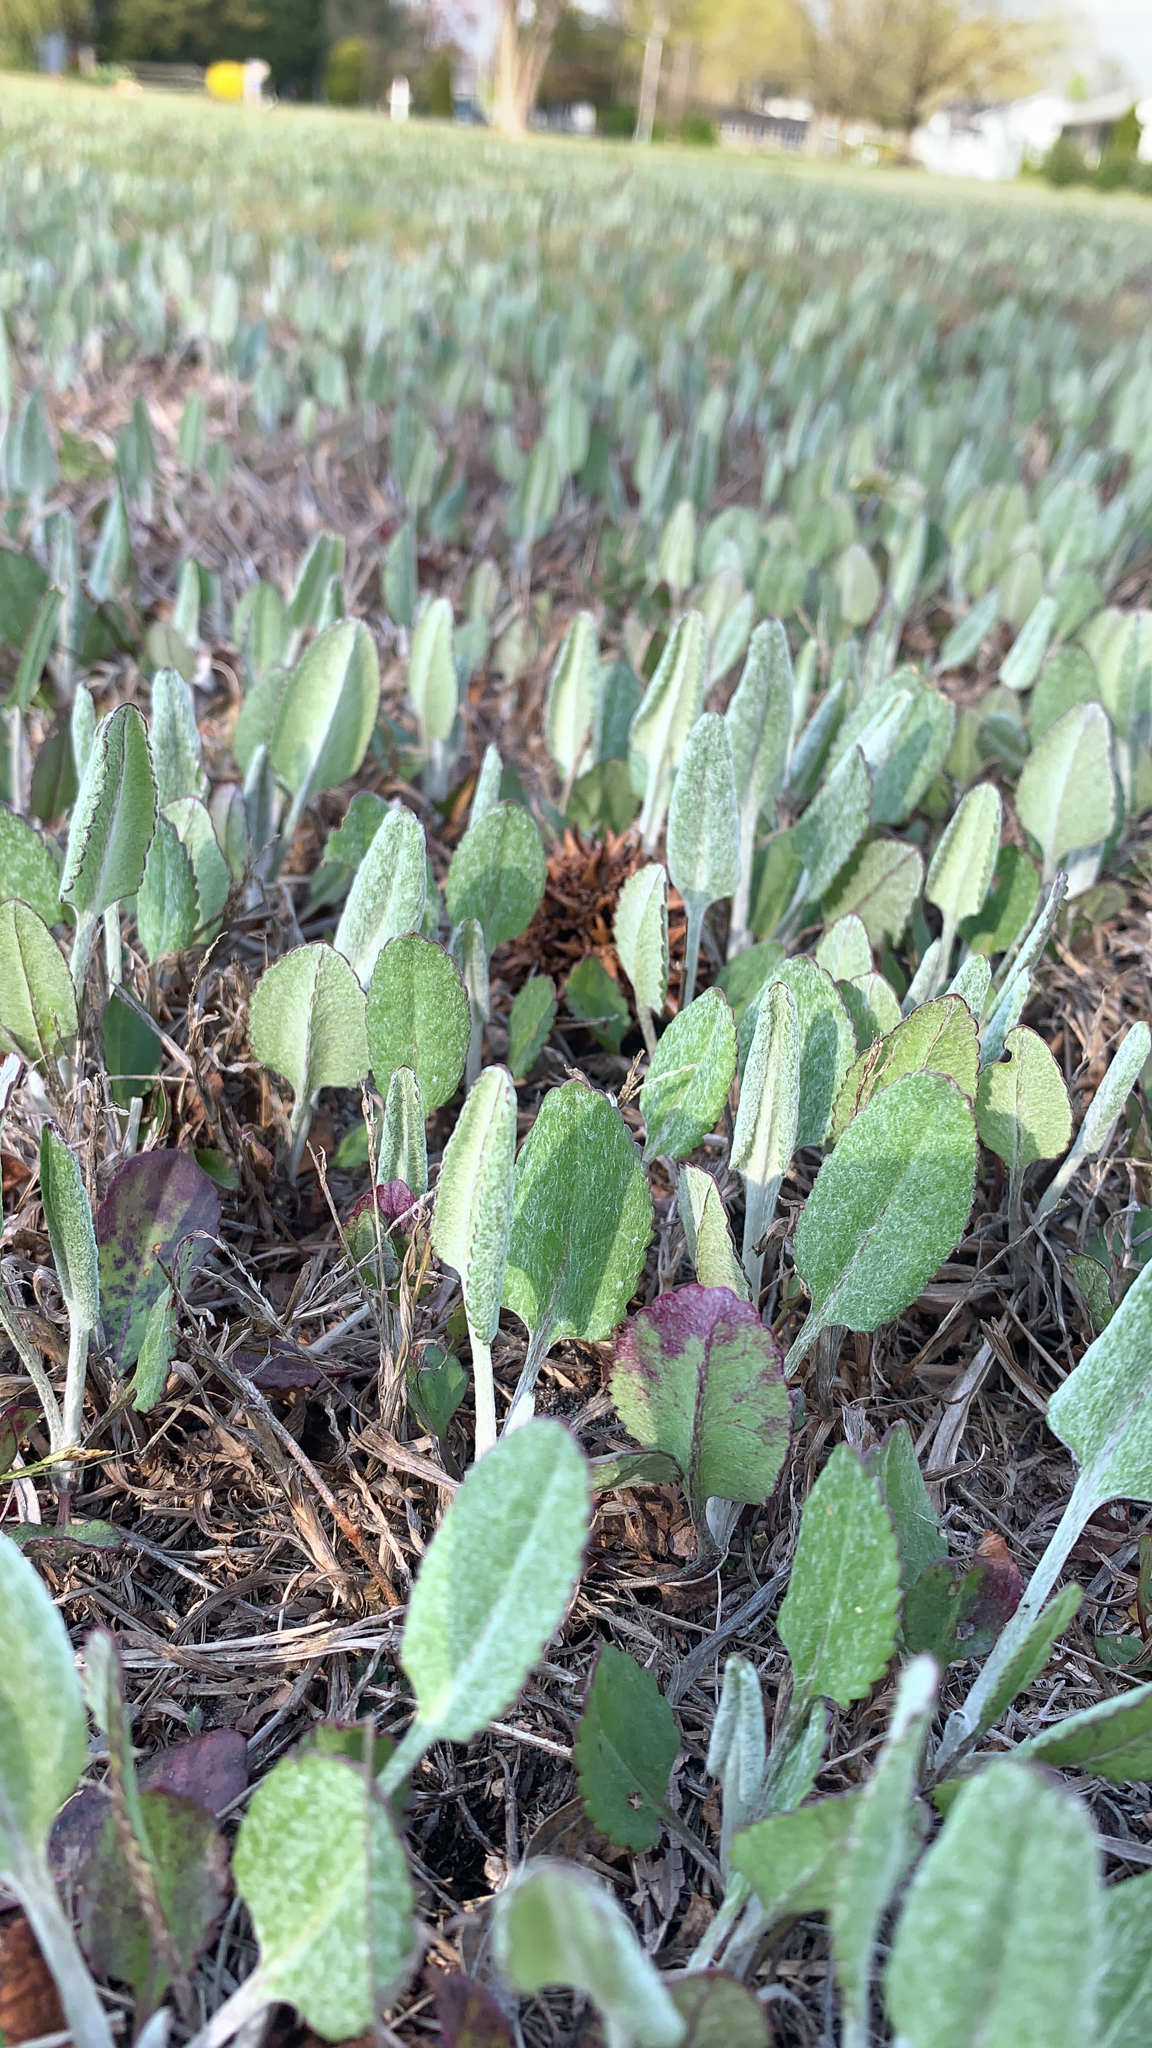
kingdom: Plantae
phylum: Tracheophyta
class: Magnoliopsida
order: Asterales
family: Asteraceae
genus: Packera
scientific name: Packera dubia
